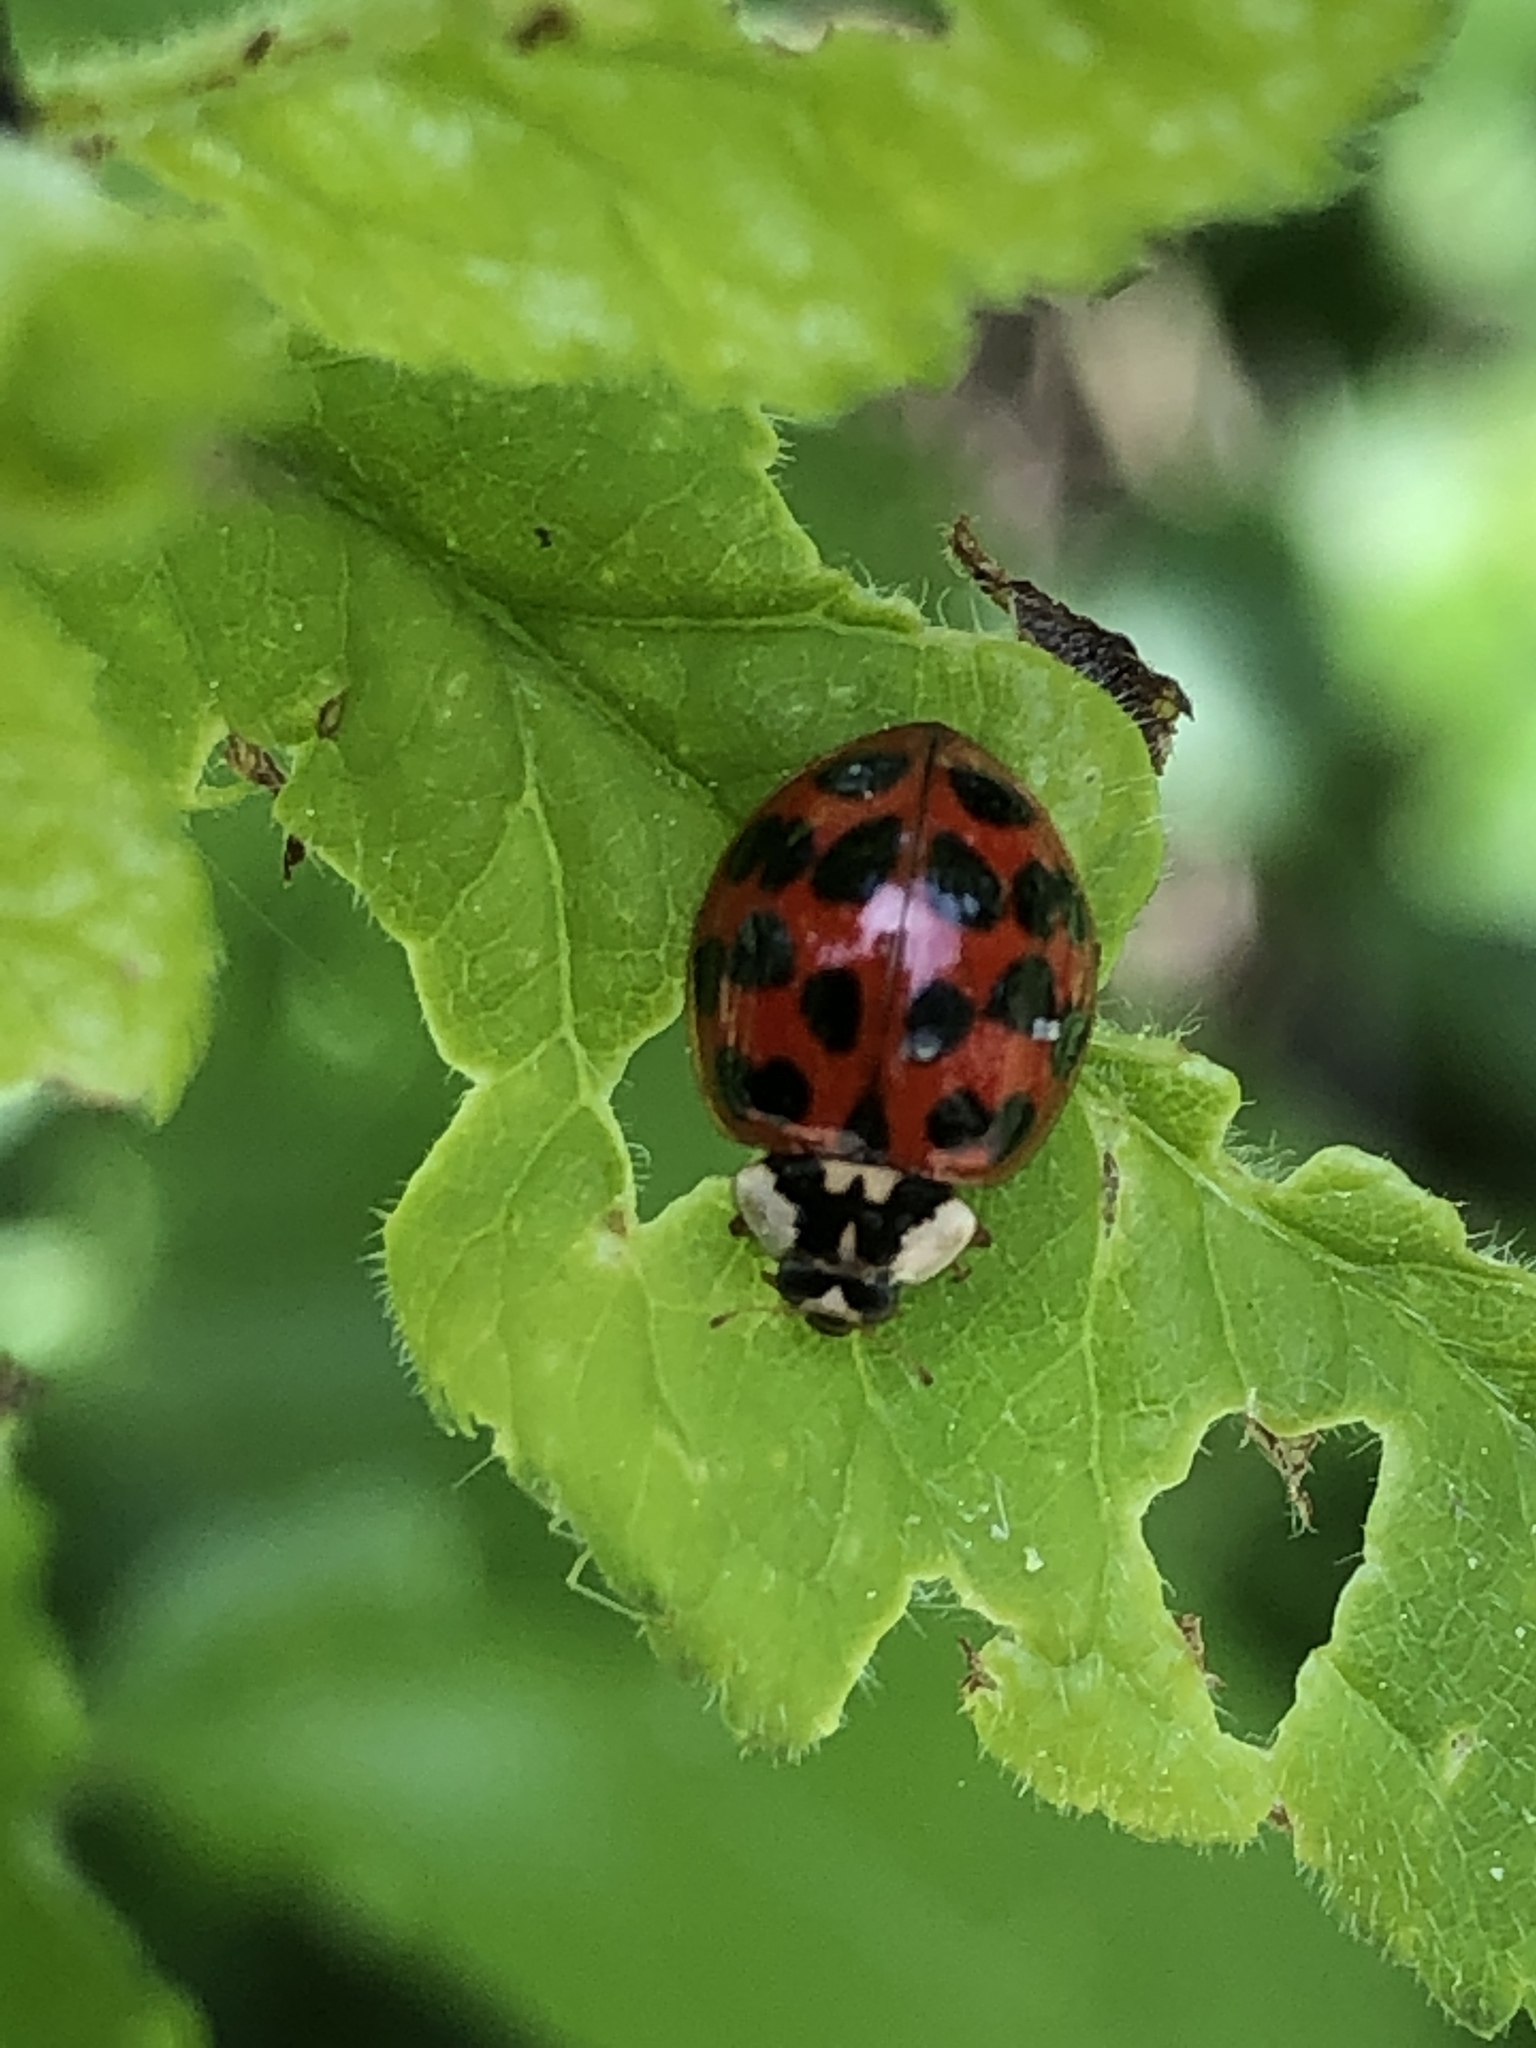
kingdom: Animalia
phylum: Arthropoda
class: Insecta
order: Coleoptera
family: Coccinellidae
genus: Harmonia
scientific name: Harmonia axyridis
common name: Harlequin ladybird
